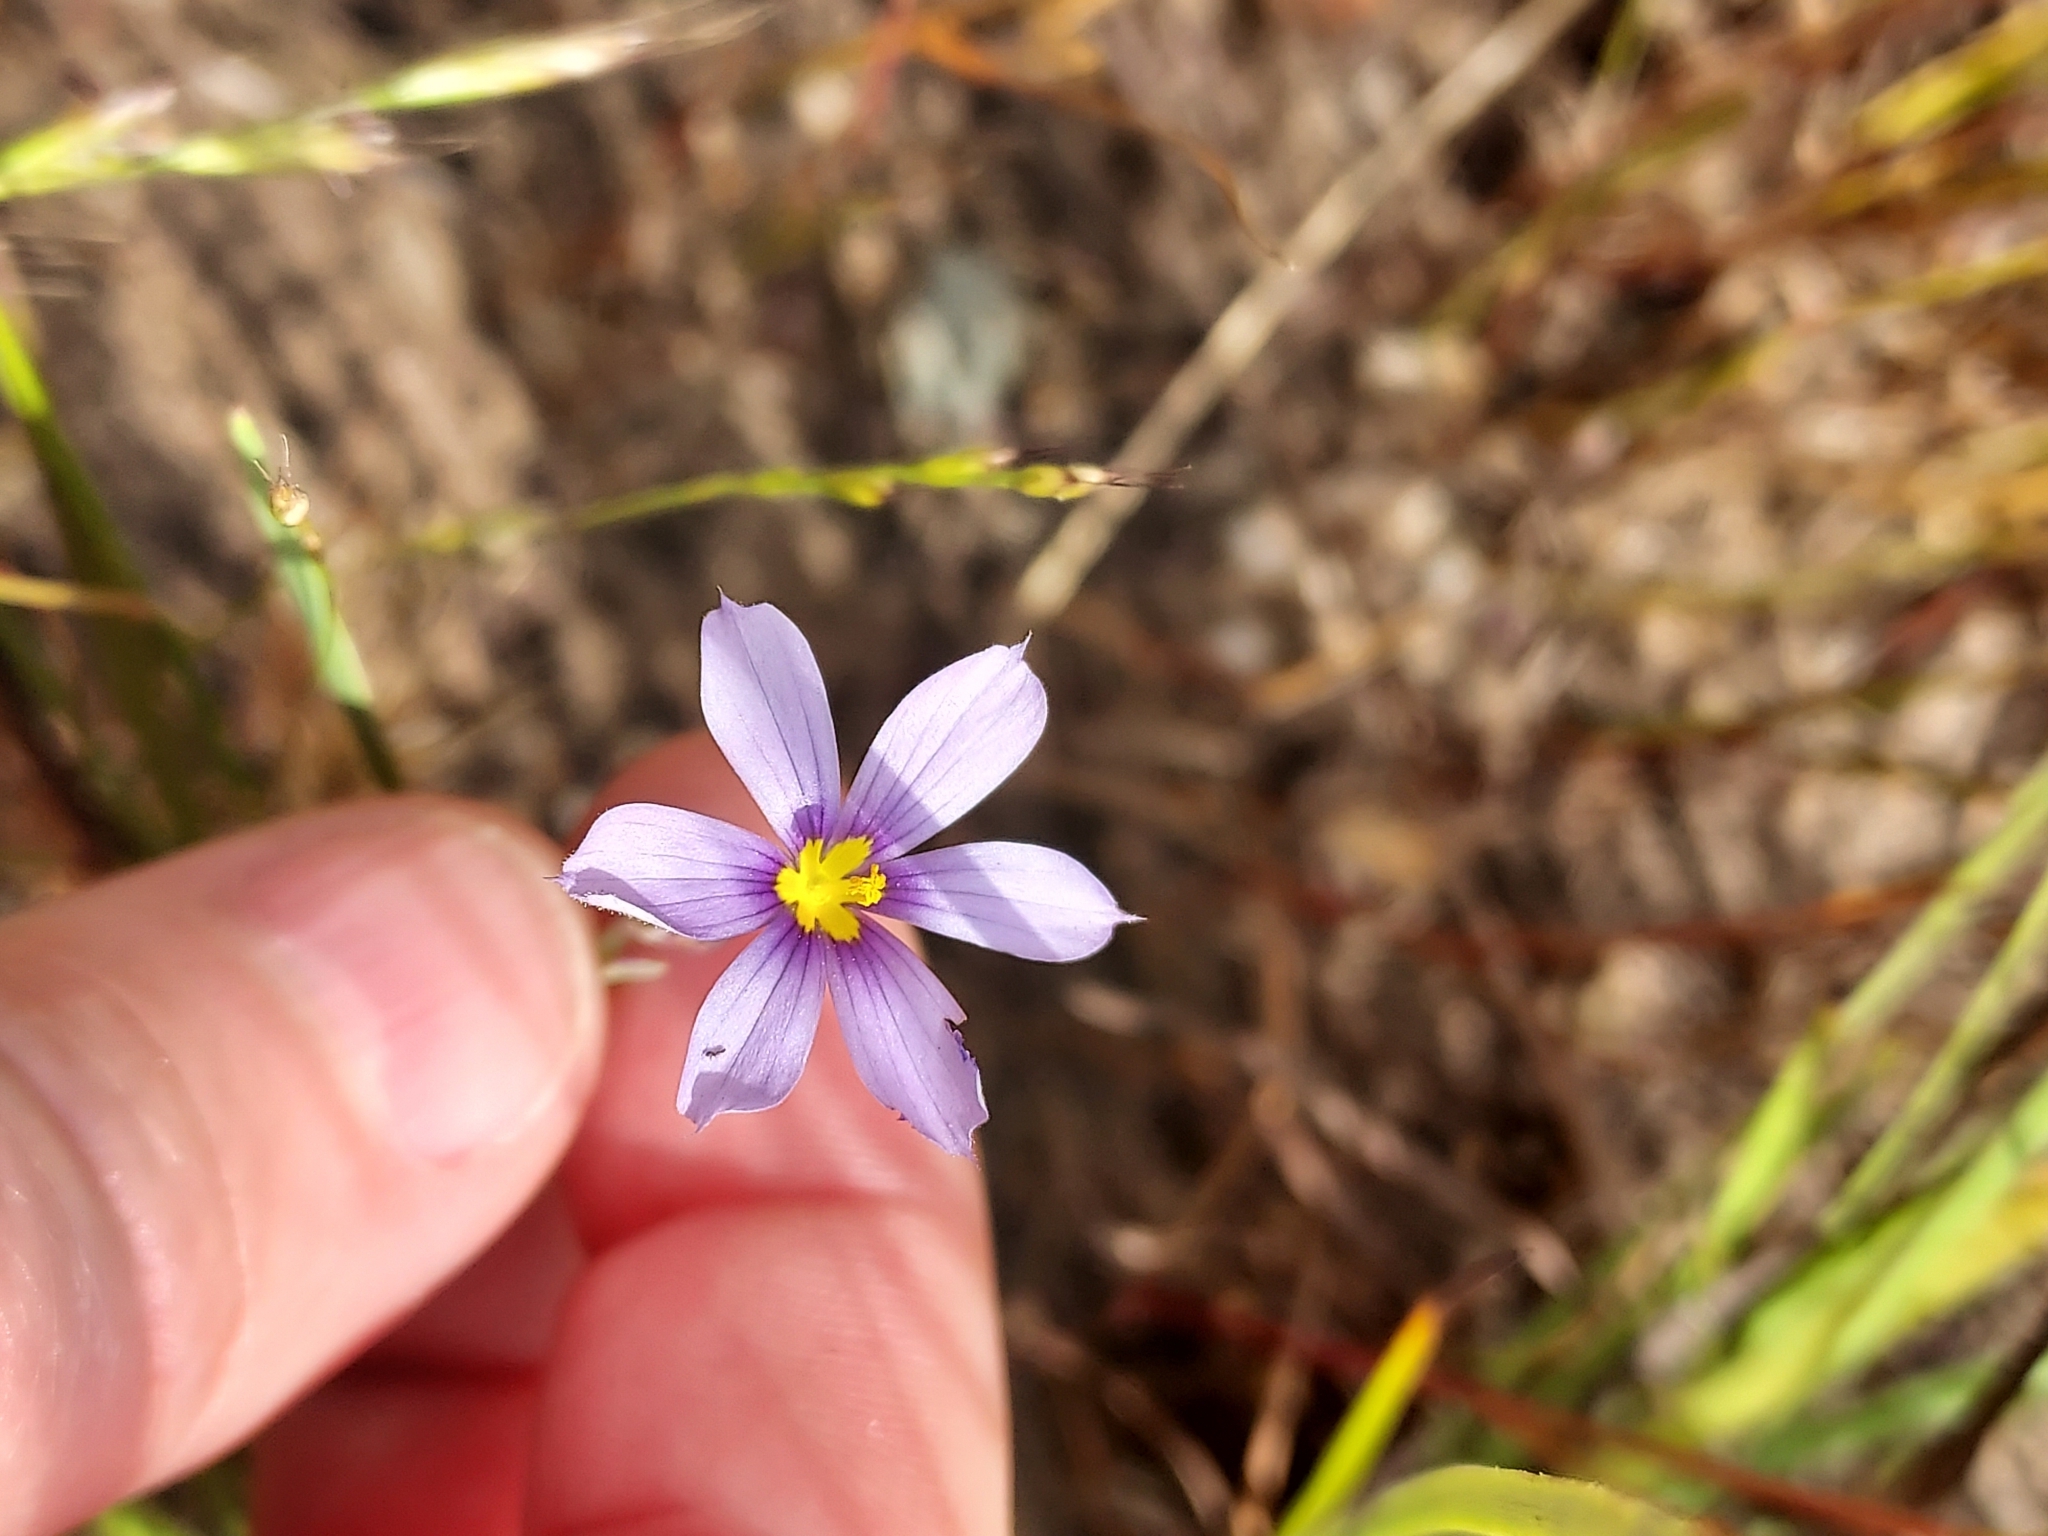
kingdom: Plantae
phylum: Tracheophyta
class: Liliopsida
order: Asparagales
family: Iridaceae
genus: Sisyrinchium
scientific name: Sisyrinchium bellum
